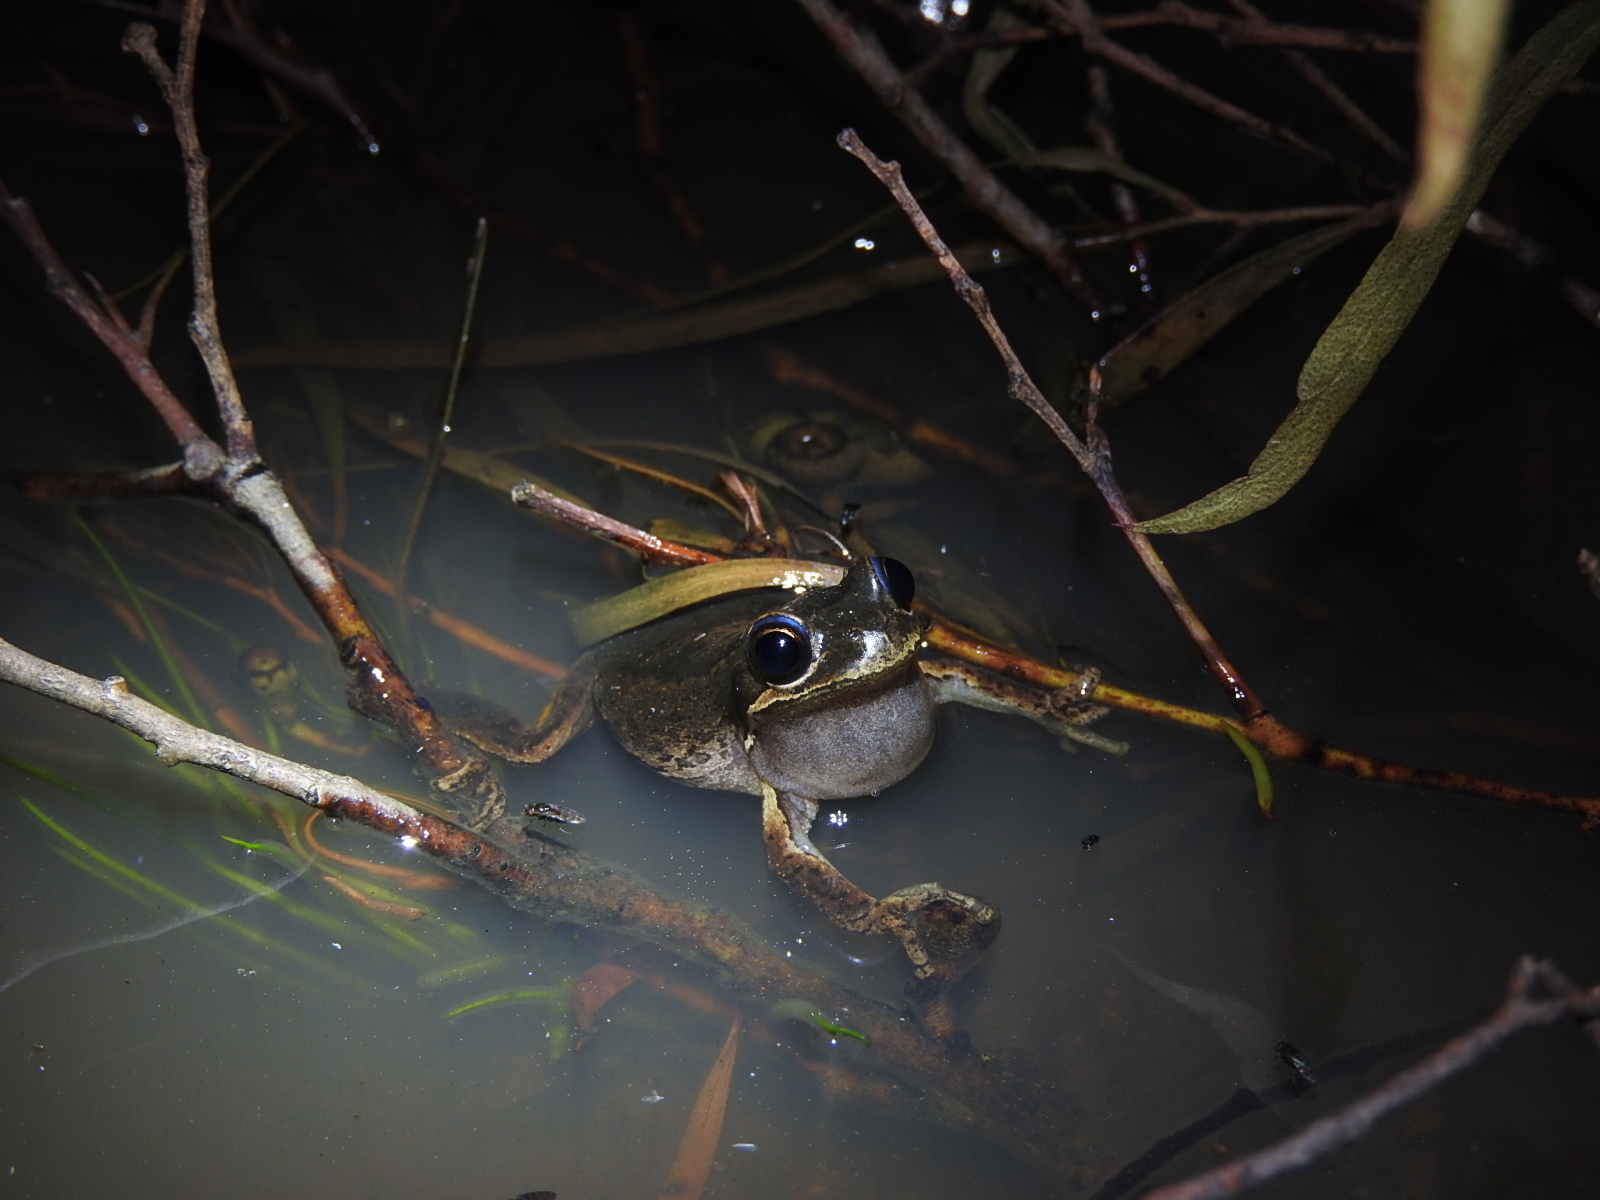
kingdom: Animalia
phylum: Chordata
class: Amphibia
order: Anura
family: Pelodryadidae
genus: Litoria
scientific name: Litoria ewingii
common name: Southern brown tree frog
